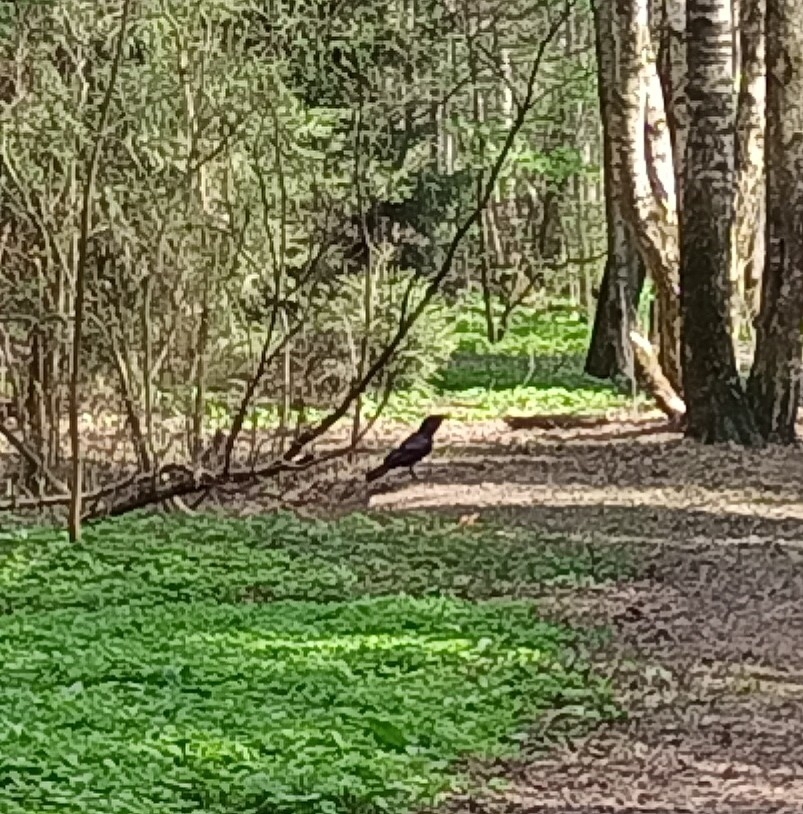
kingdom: Animalia
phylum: Chordata
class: Aves
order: Passeriformes
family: Corvidae
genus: Corvus
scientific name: Corvus corax
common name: Common raven
